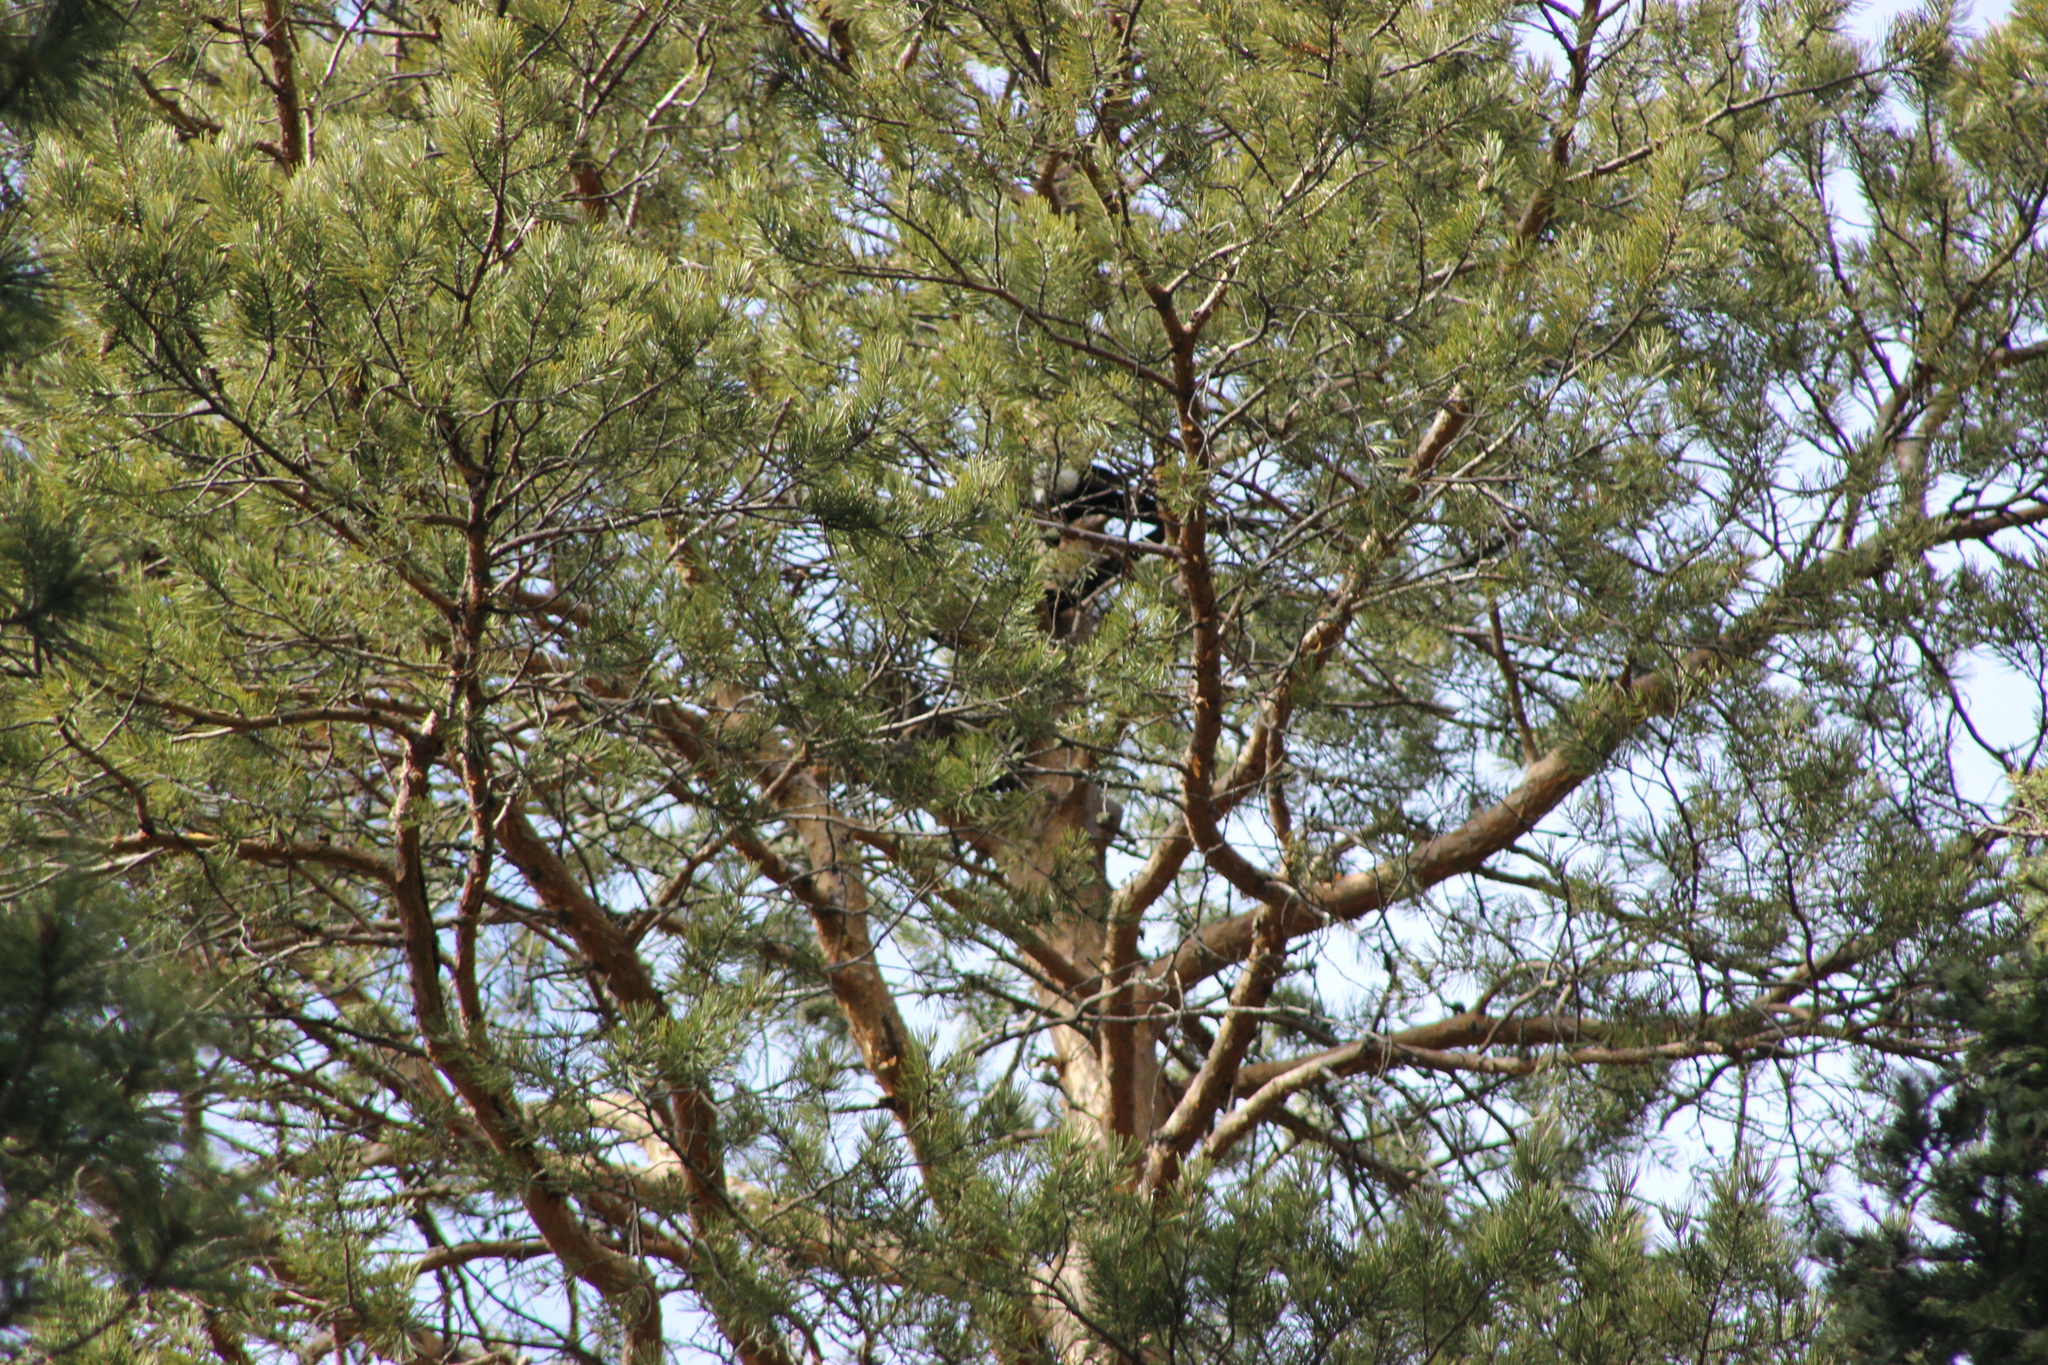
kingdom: Plantae
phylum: Tracheophyta
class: Pinopsida
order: Pinales
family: Pinaceae
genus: Pinus
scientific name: Pinus sylvestris
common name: Scots pine
